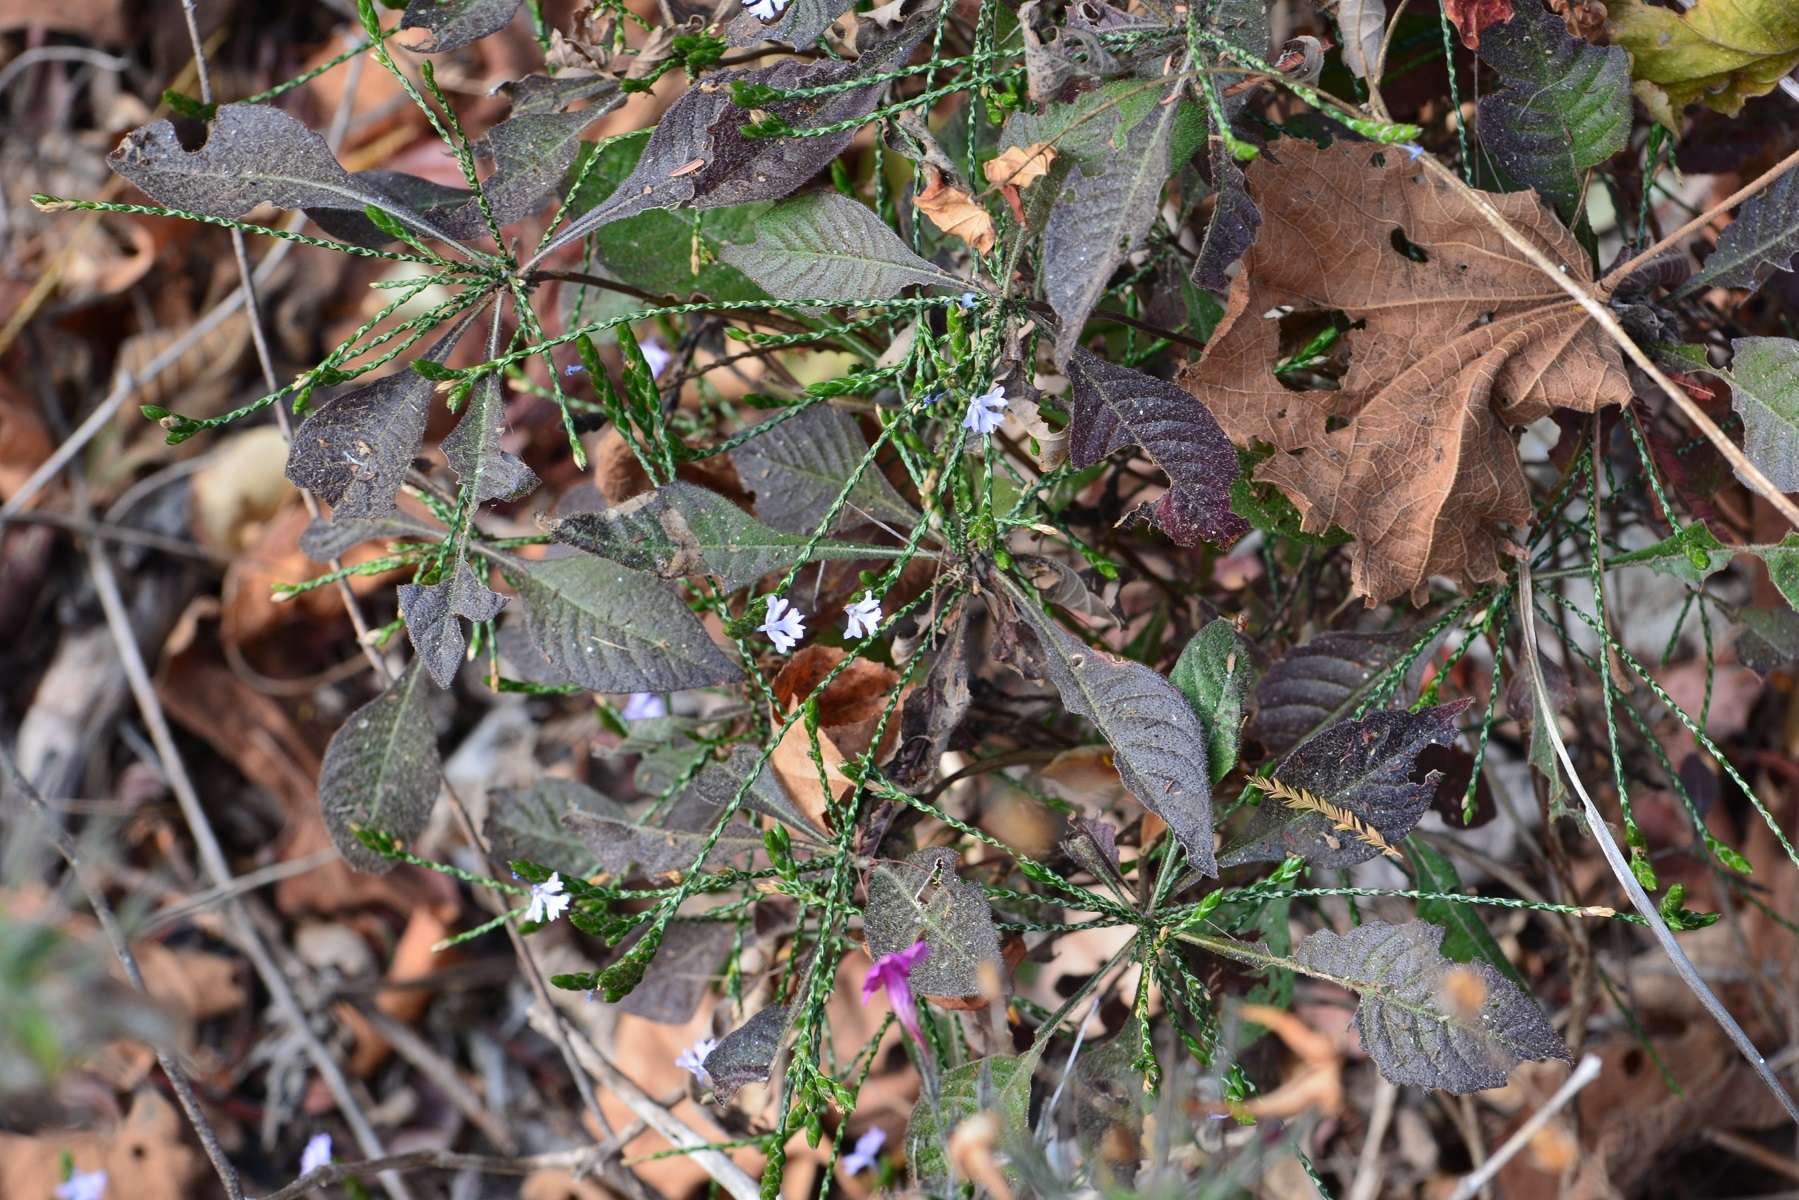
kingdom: Plantae
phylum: Tracheophyta
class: Magnoliopsida
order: Lamiales
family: Acanthaceae
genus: Elytraria
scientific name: Elytraria imbricata
